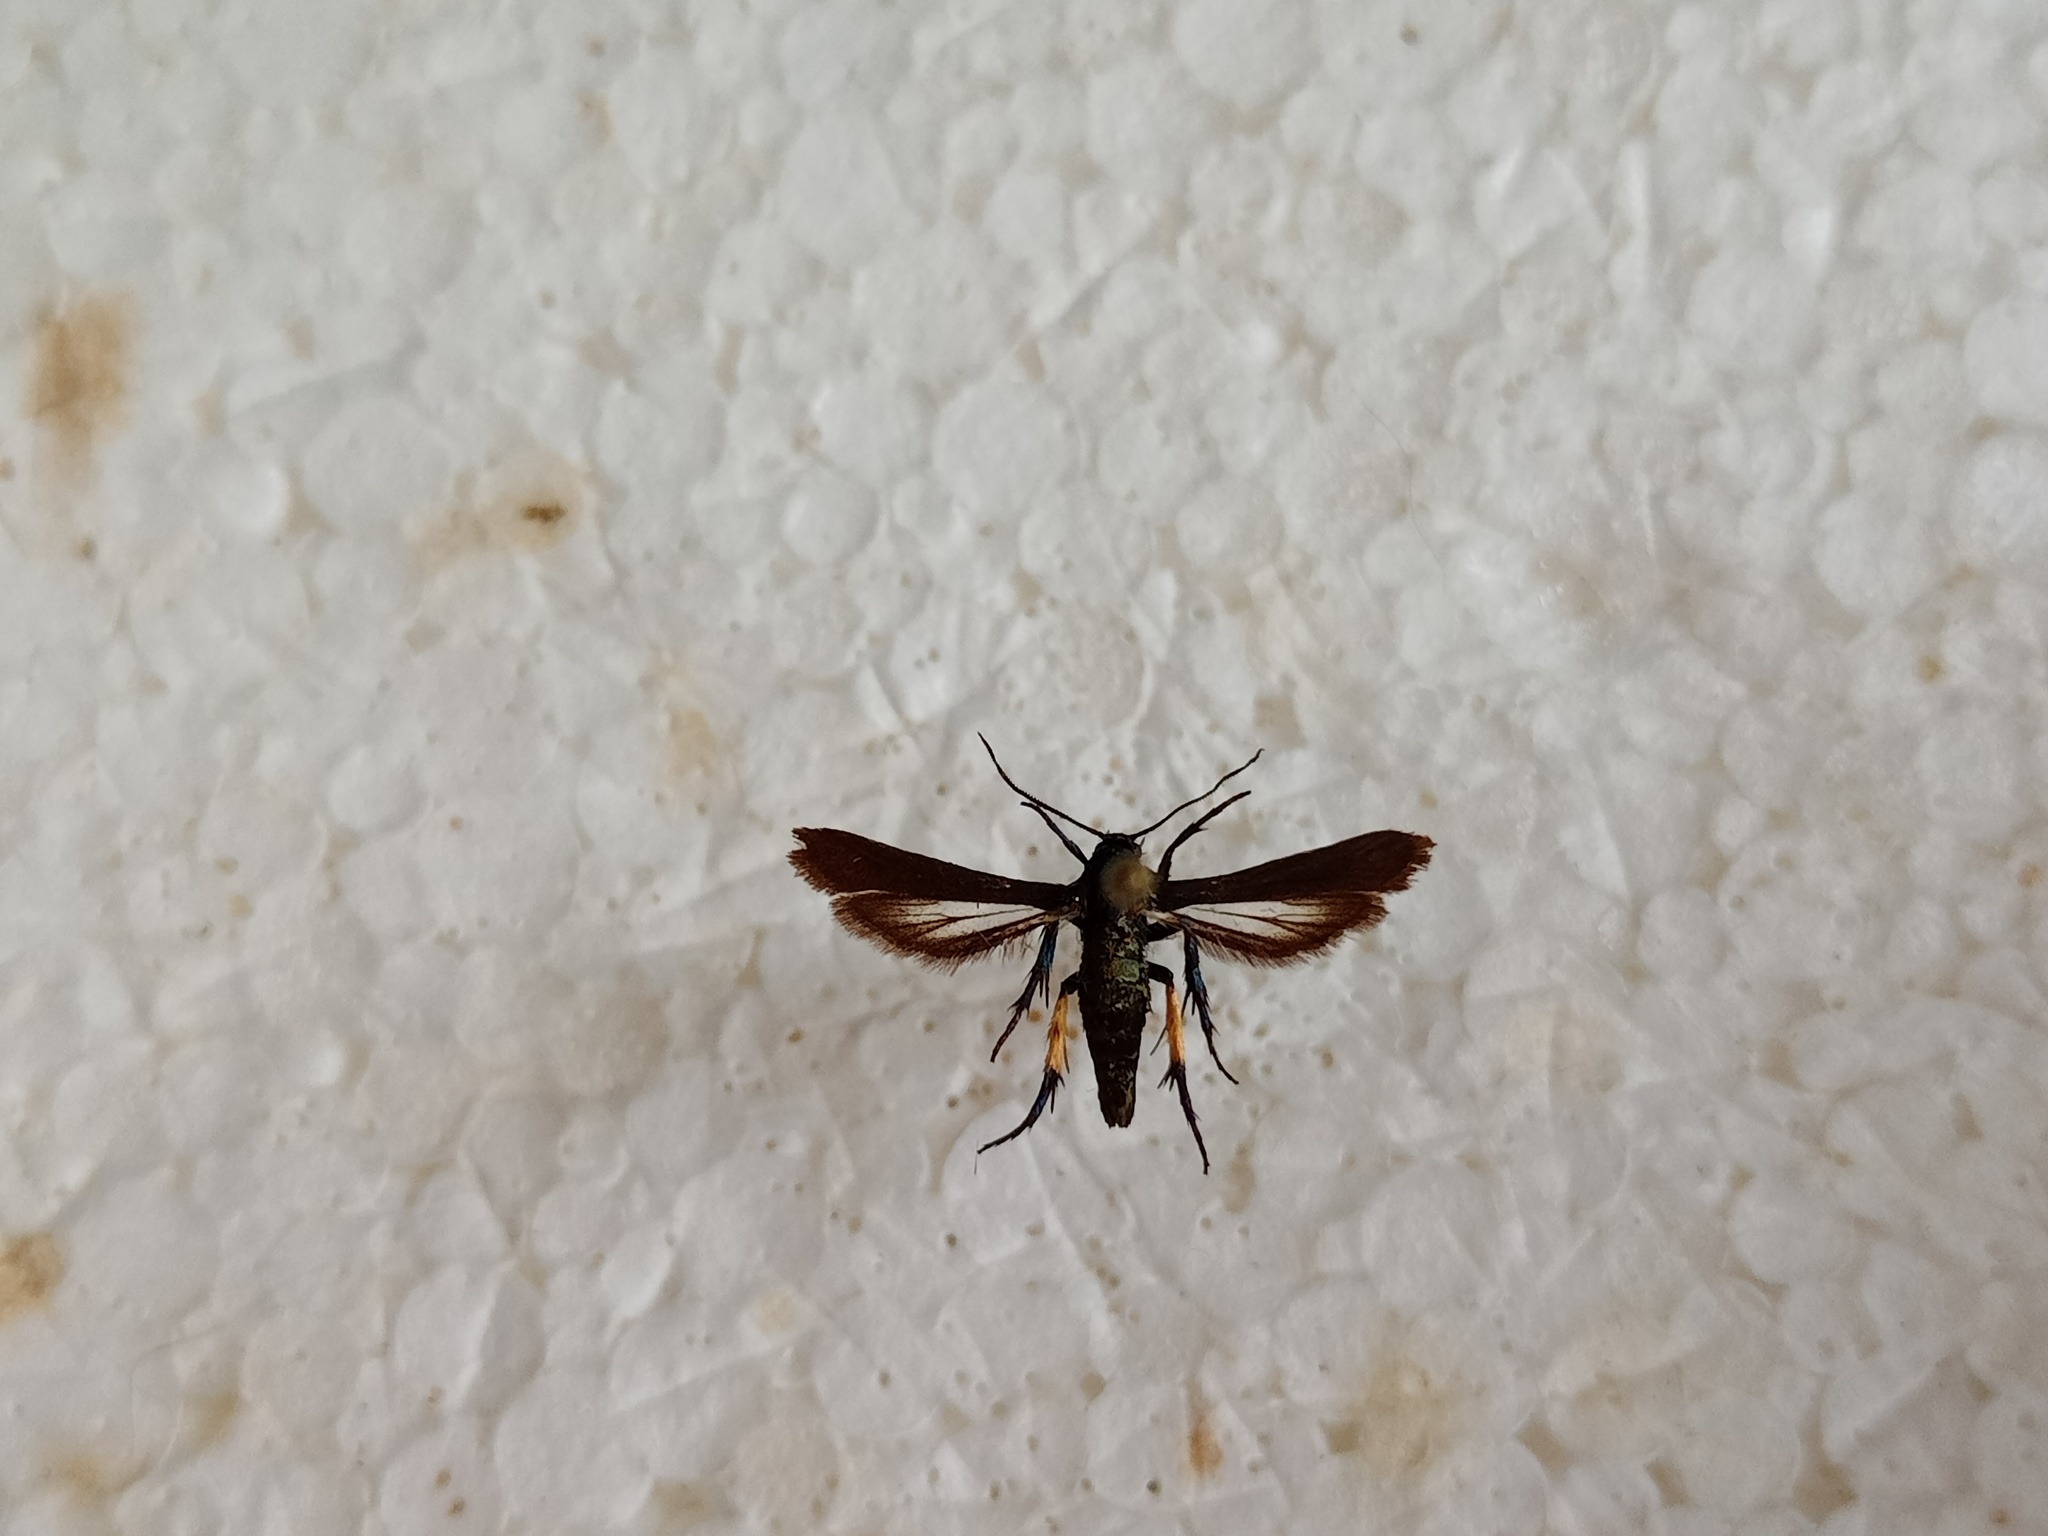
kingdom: Animalia
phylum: Arthropoda
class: Insecta
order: Lepidoptera
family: Sesiidae
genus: Negotinthia
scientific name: Negotinthia myrmosaeformis
